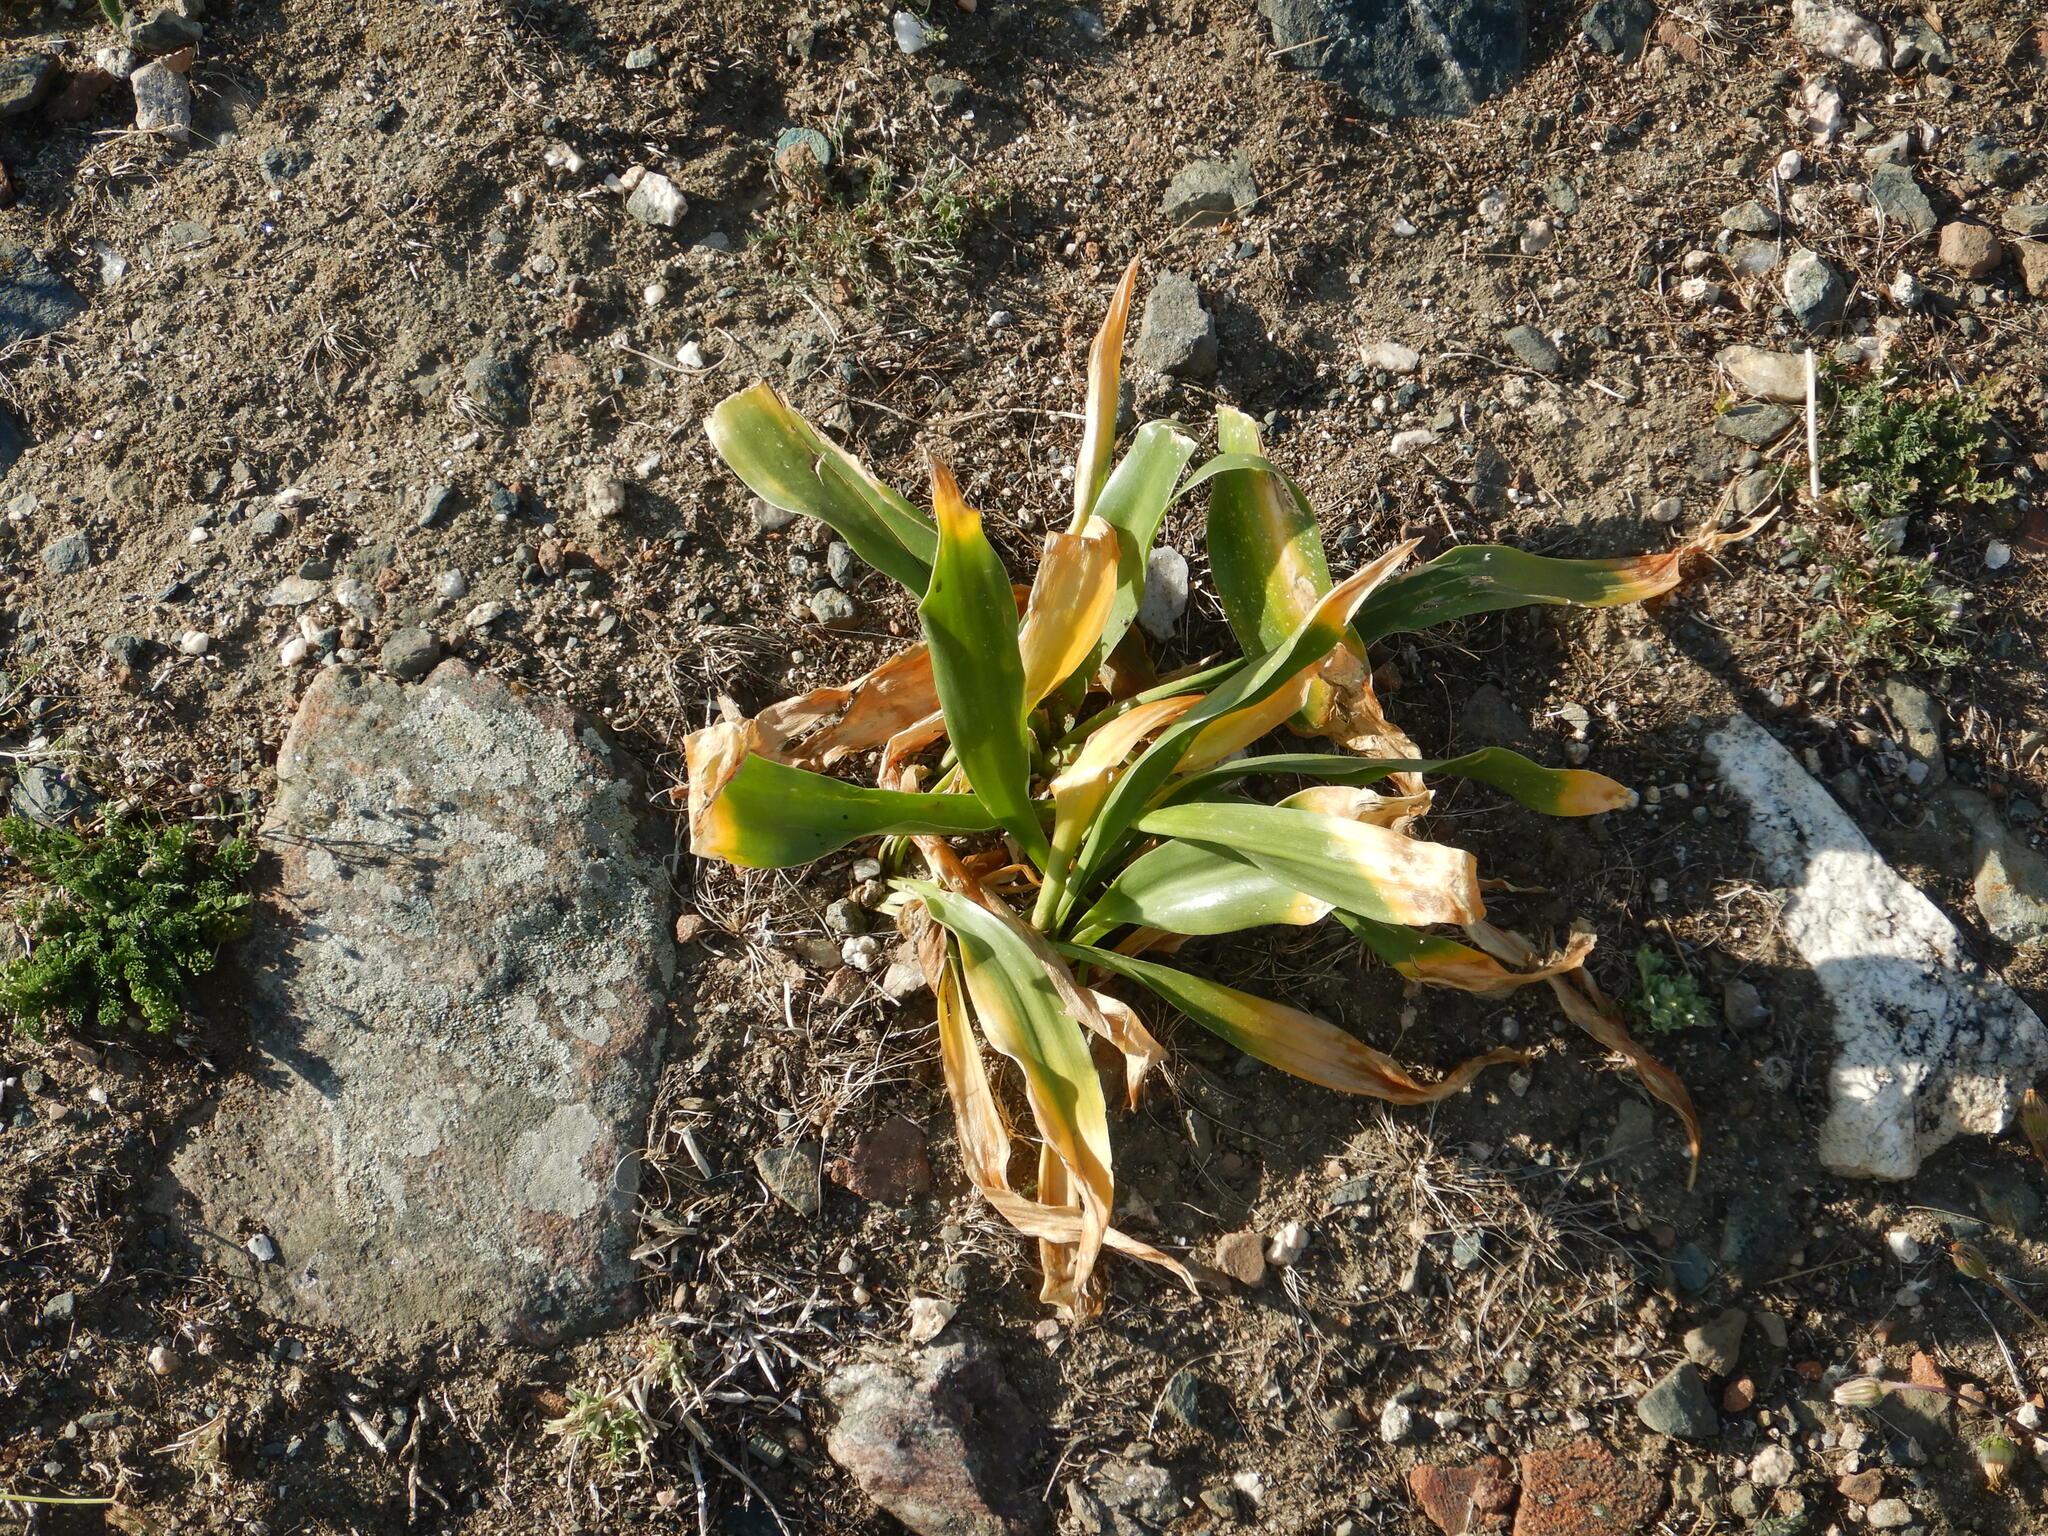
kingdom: Plantae
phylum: Tracheophyta
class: Liliopsida
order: Asparagales
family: Asparagaceae
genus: Drimia
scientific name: Drimia maritima
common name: Maritime squill
